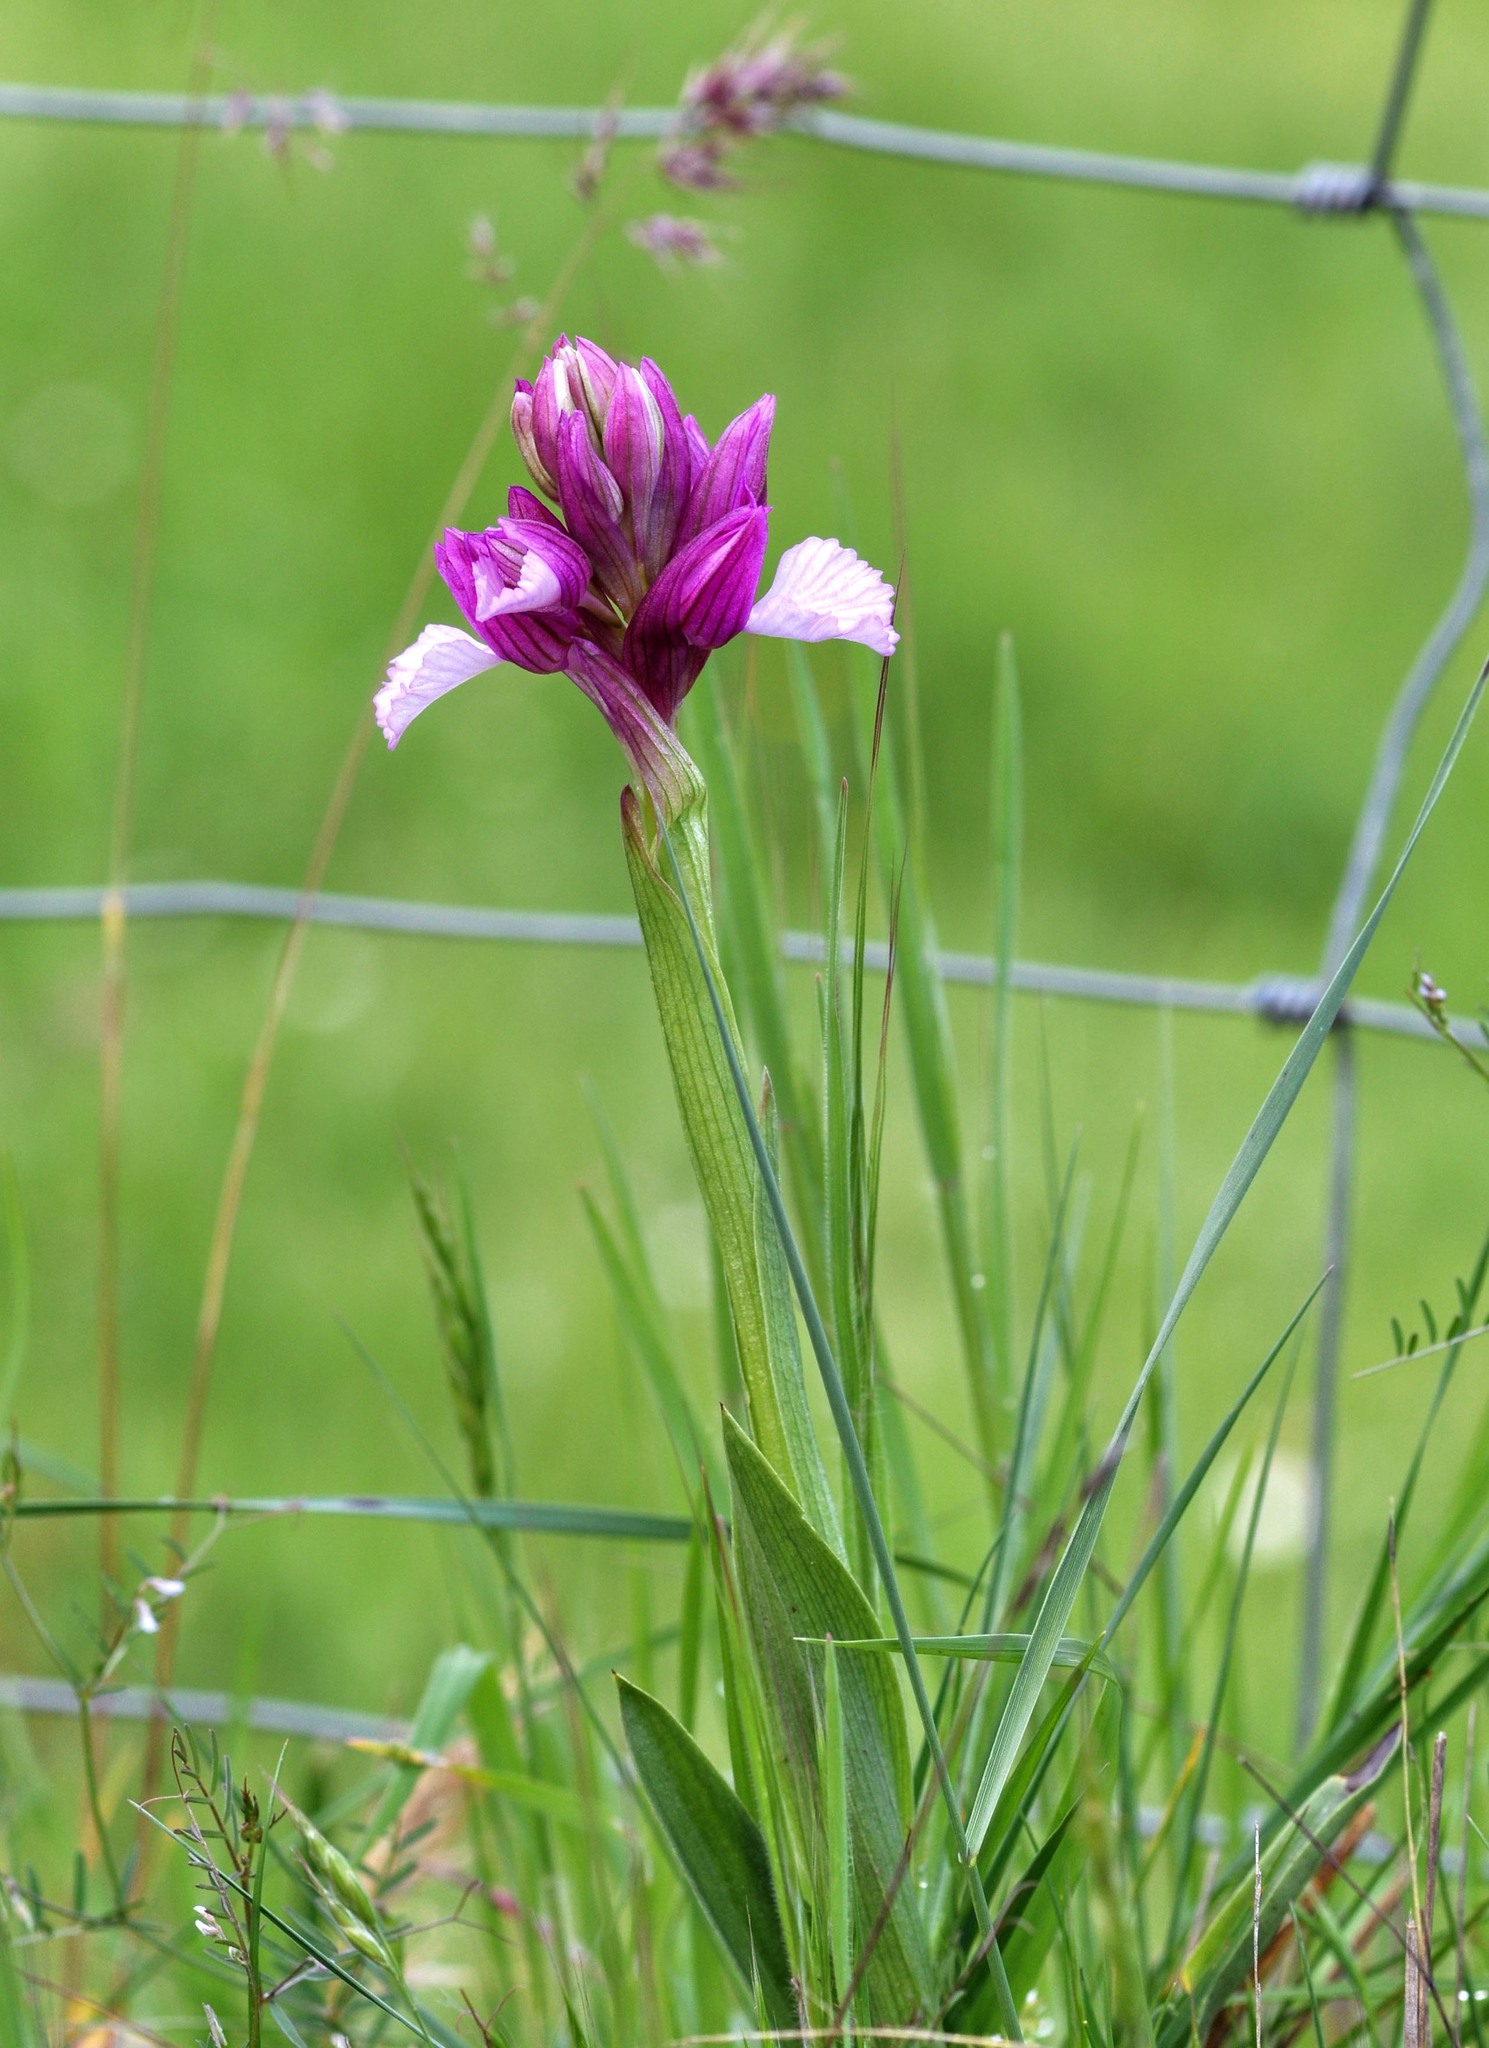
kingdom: Plantae
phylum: Tracheophyta
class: Liliopsida
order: Asparagales
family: Orchidaceae
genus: Anacamptis
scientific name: Anacamptis papilionacea
